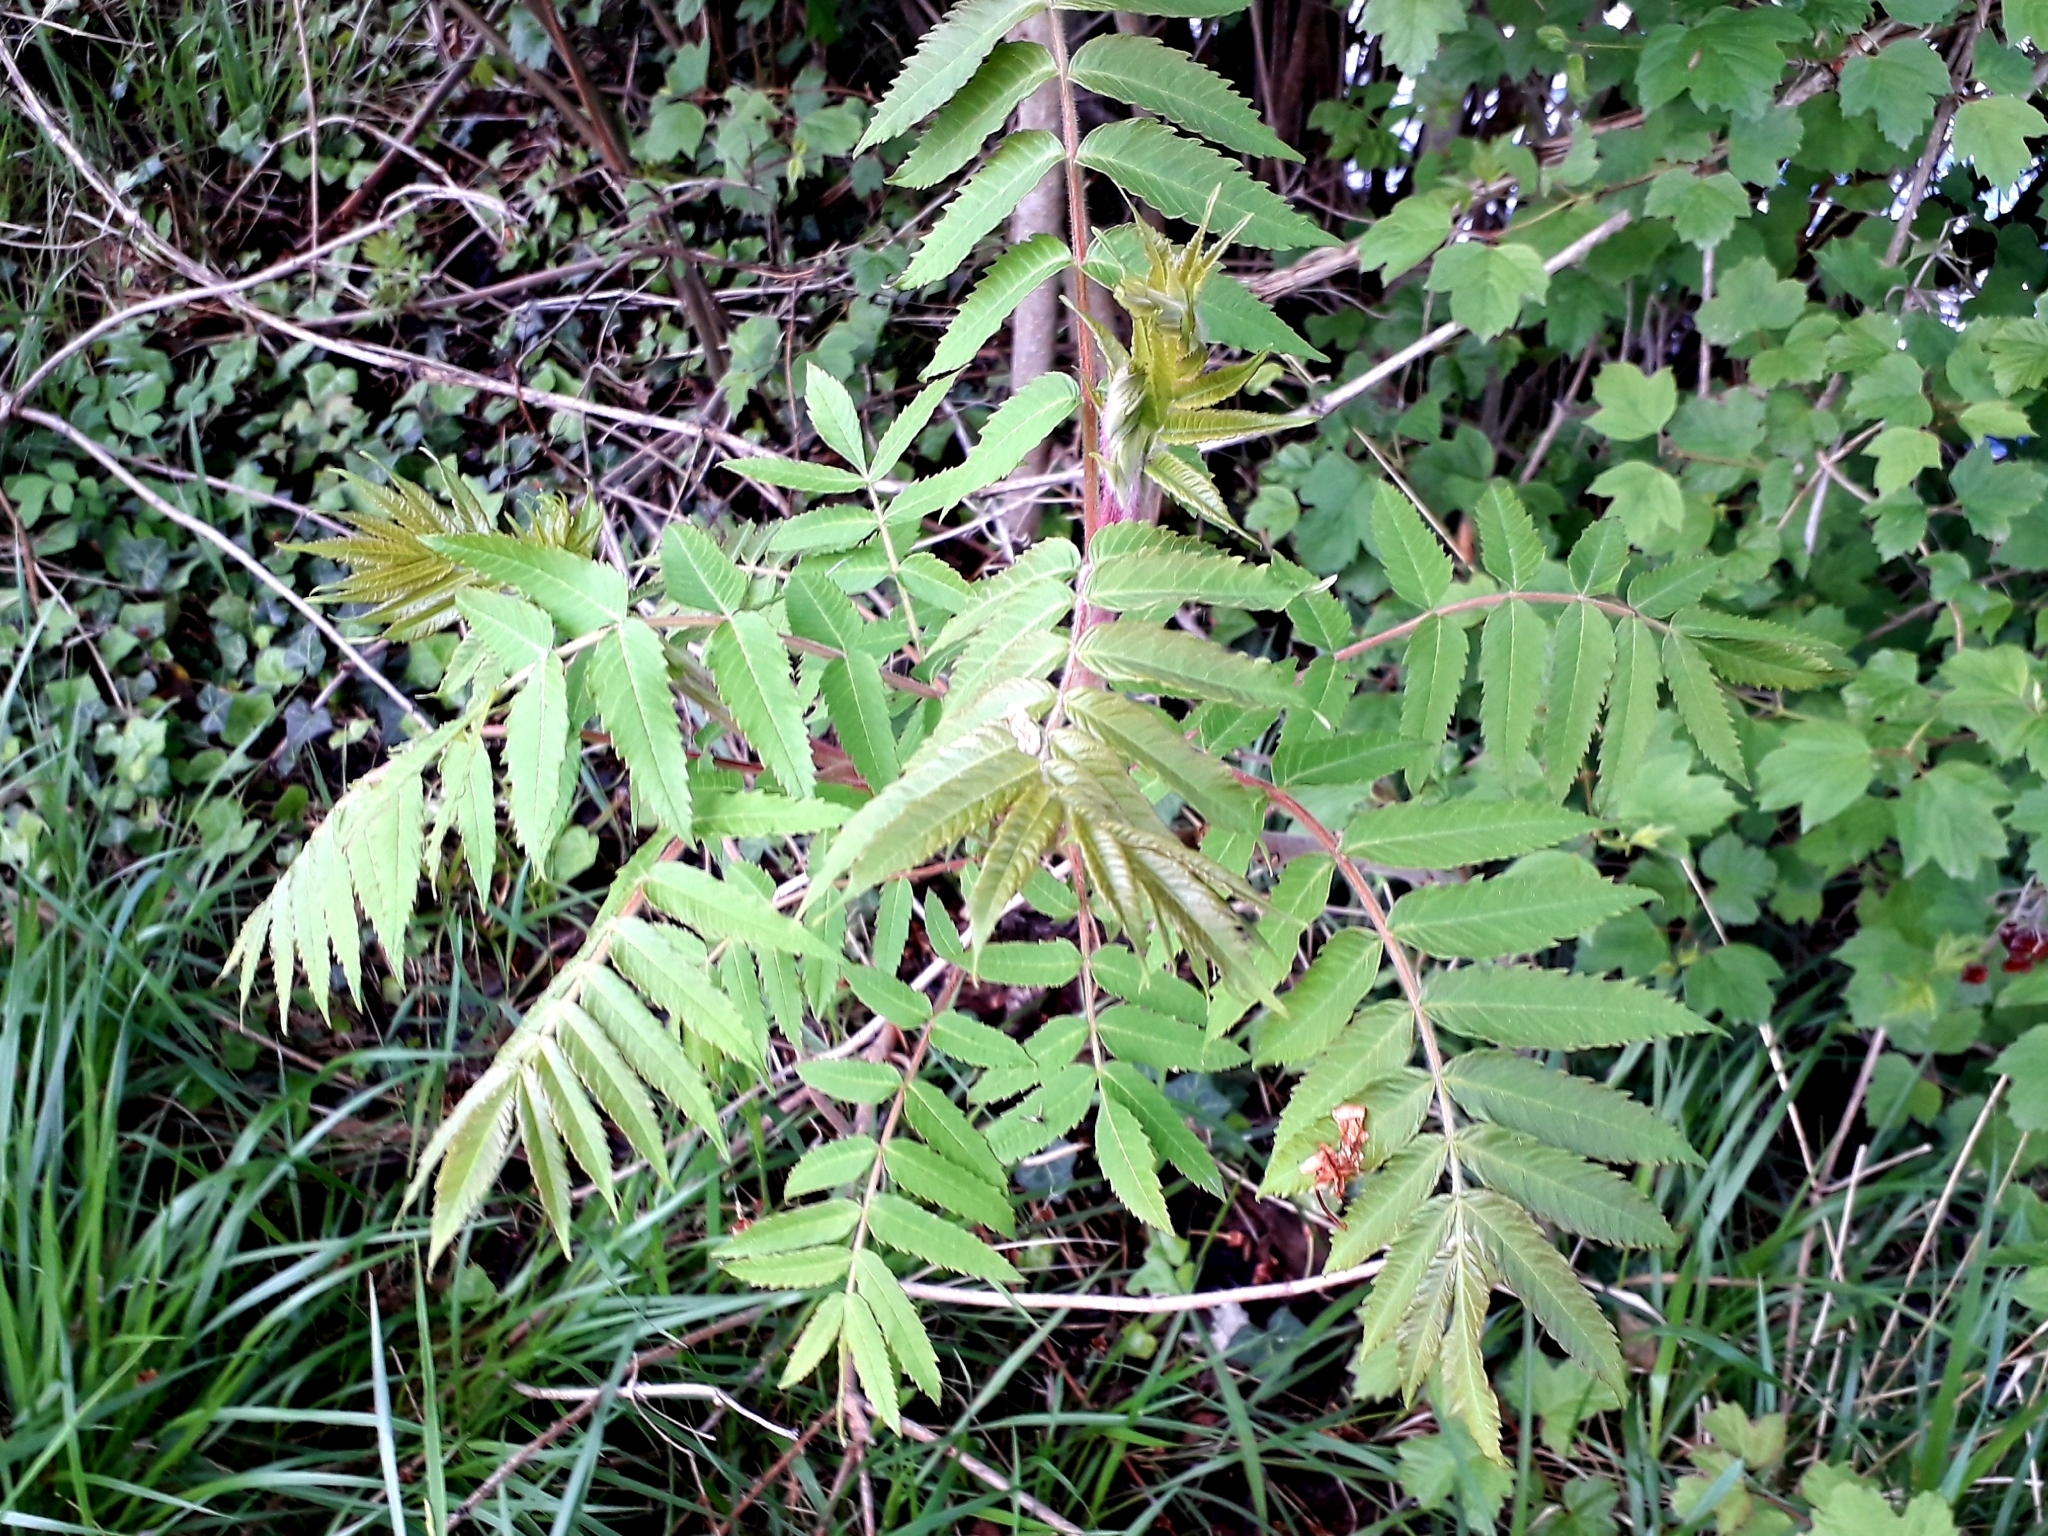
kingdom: Plantae
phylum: Tracheophyta
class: Magnoliopsida
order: Sapindales
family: Anacardiaceae
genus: Rhus
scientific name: Rhus typhina
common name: Staghorn sumac
